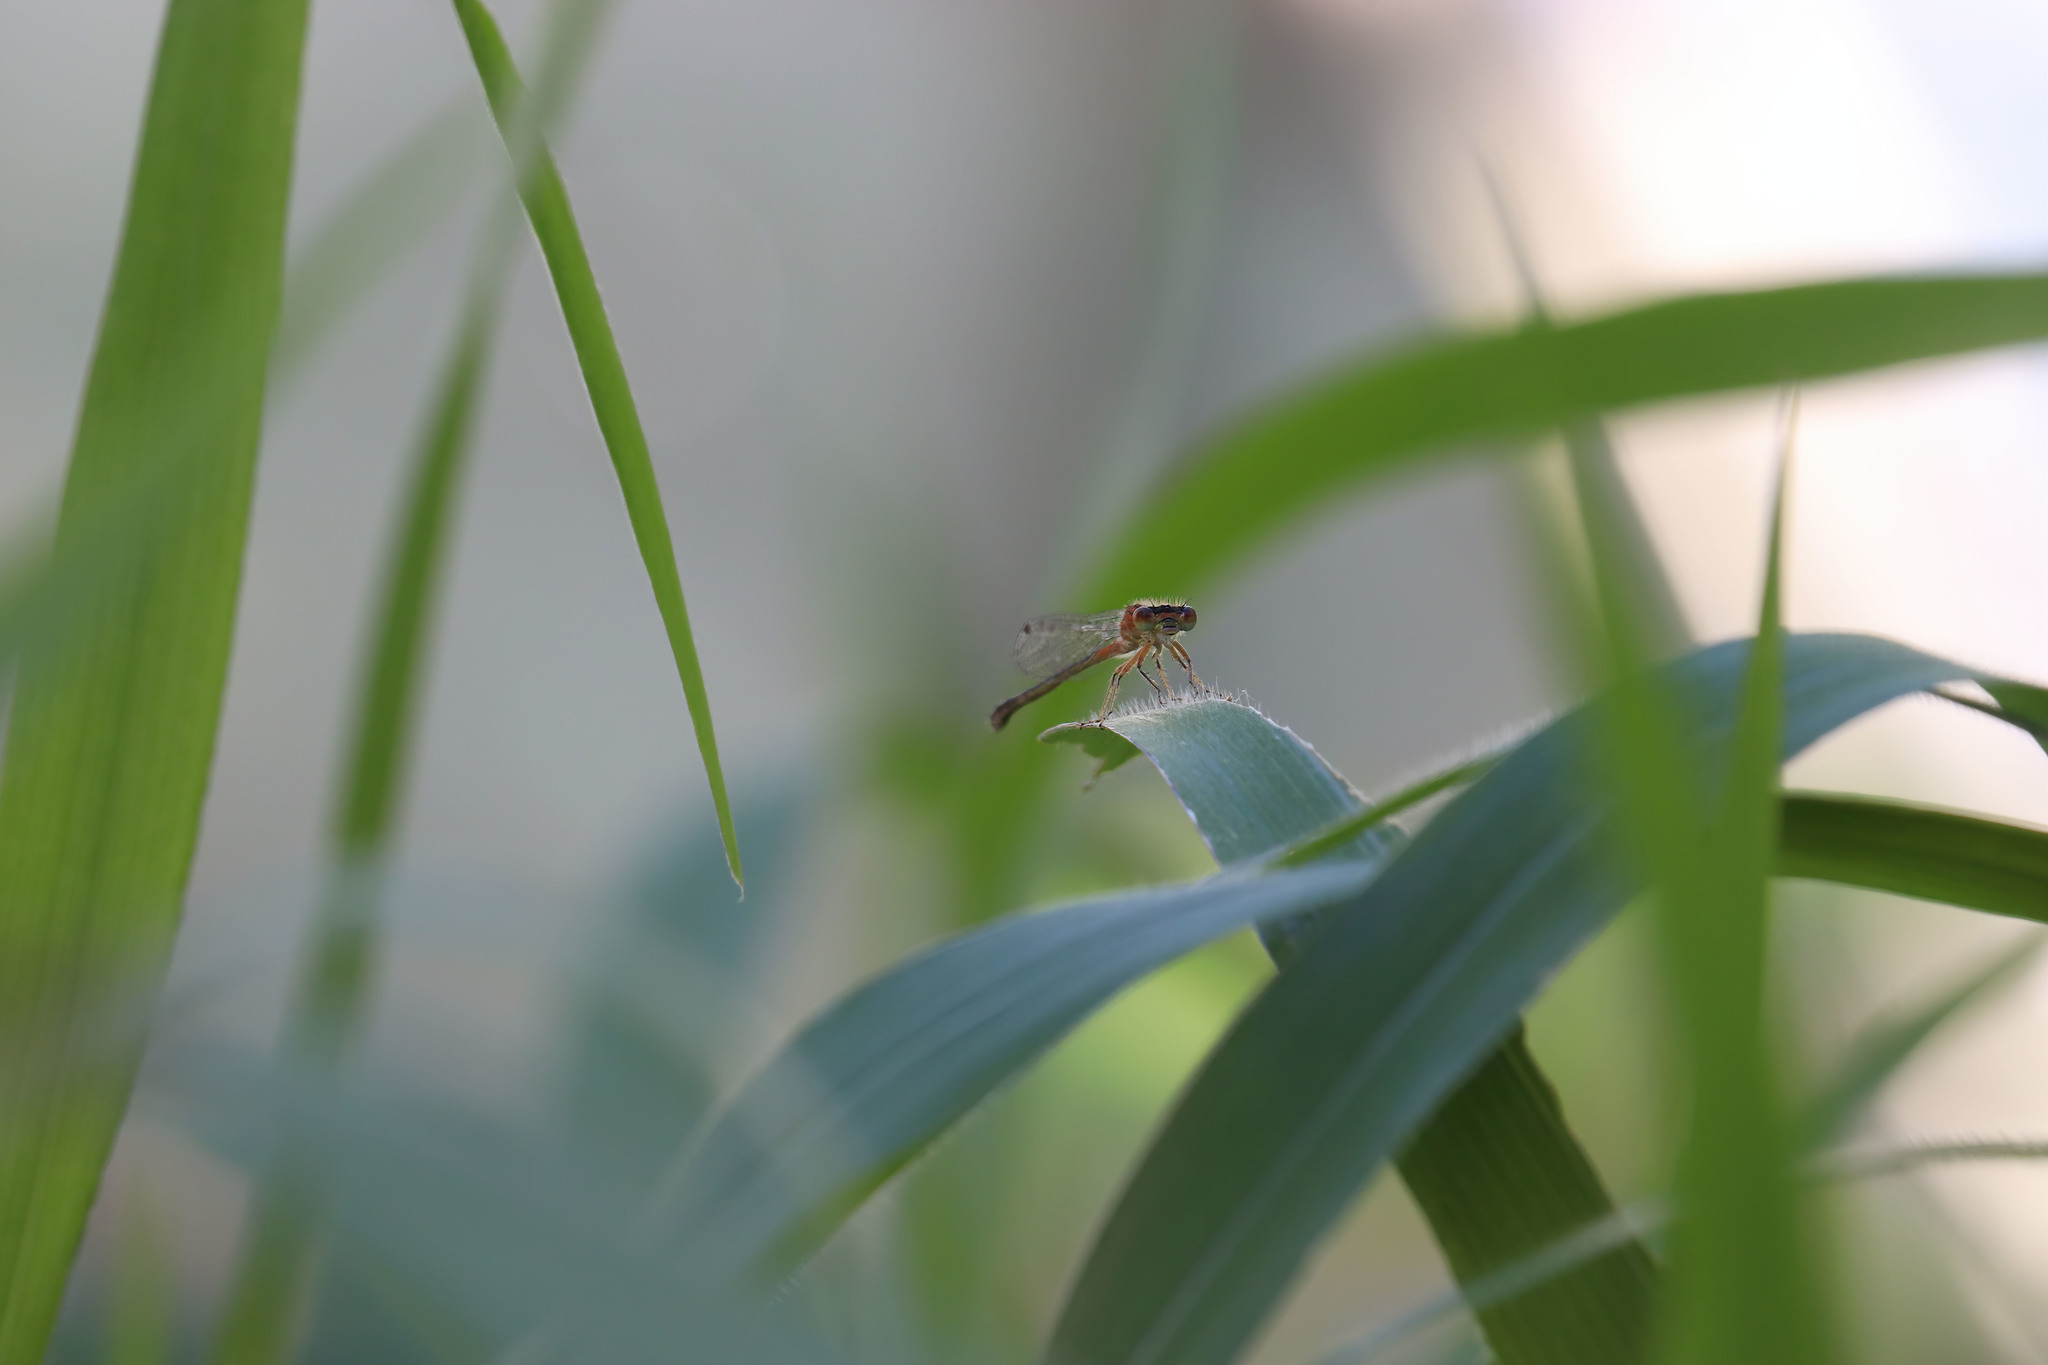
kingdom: Animalia
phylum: Arthropoda
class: Insecta
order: Odonata
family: Coenagrionidae
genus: Ischnura
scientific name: Ischnura verticalis
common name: Eastern forktail
